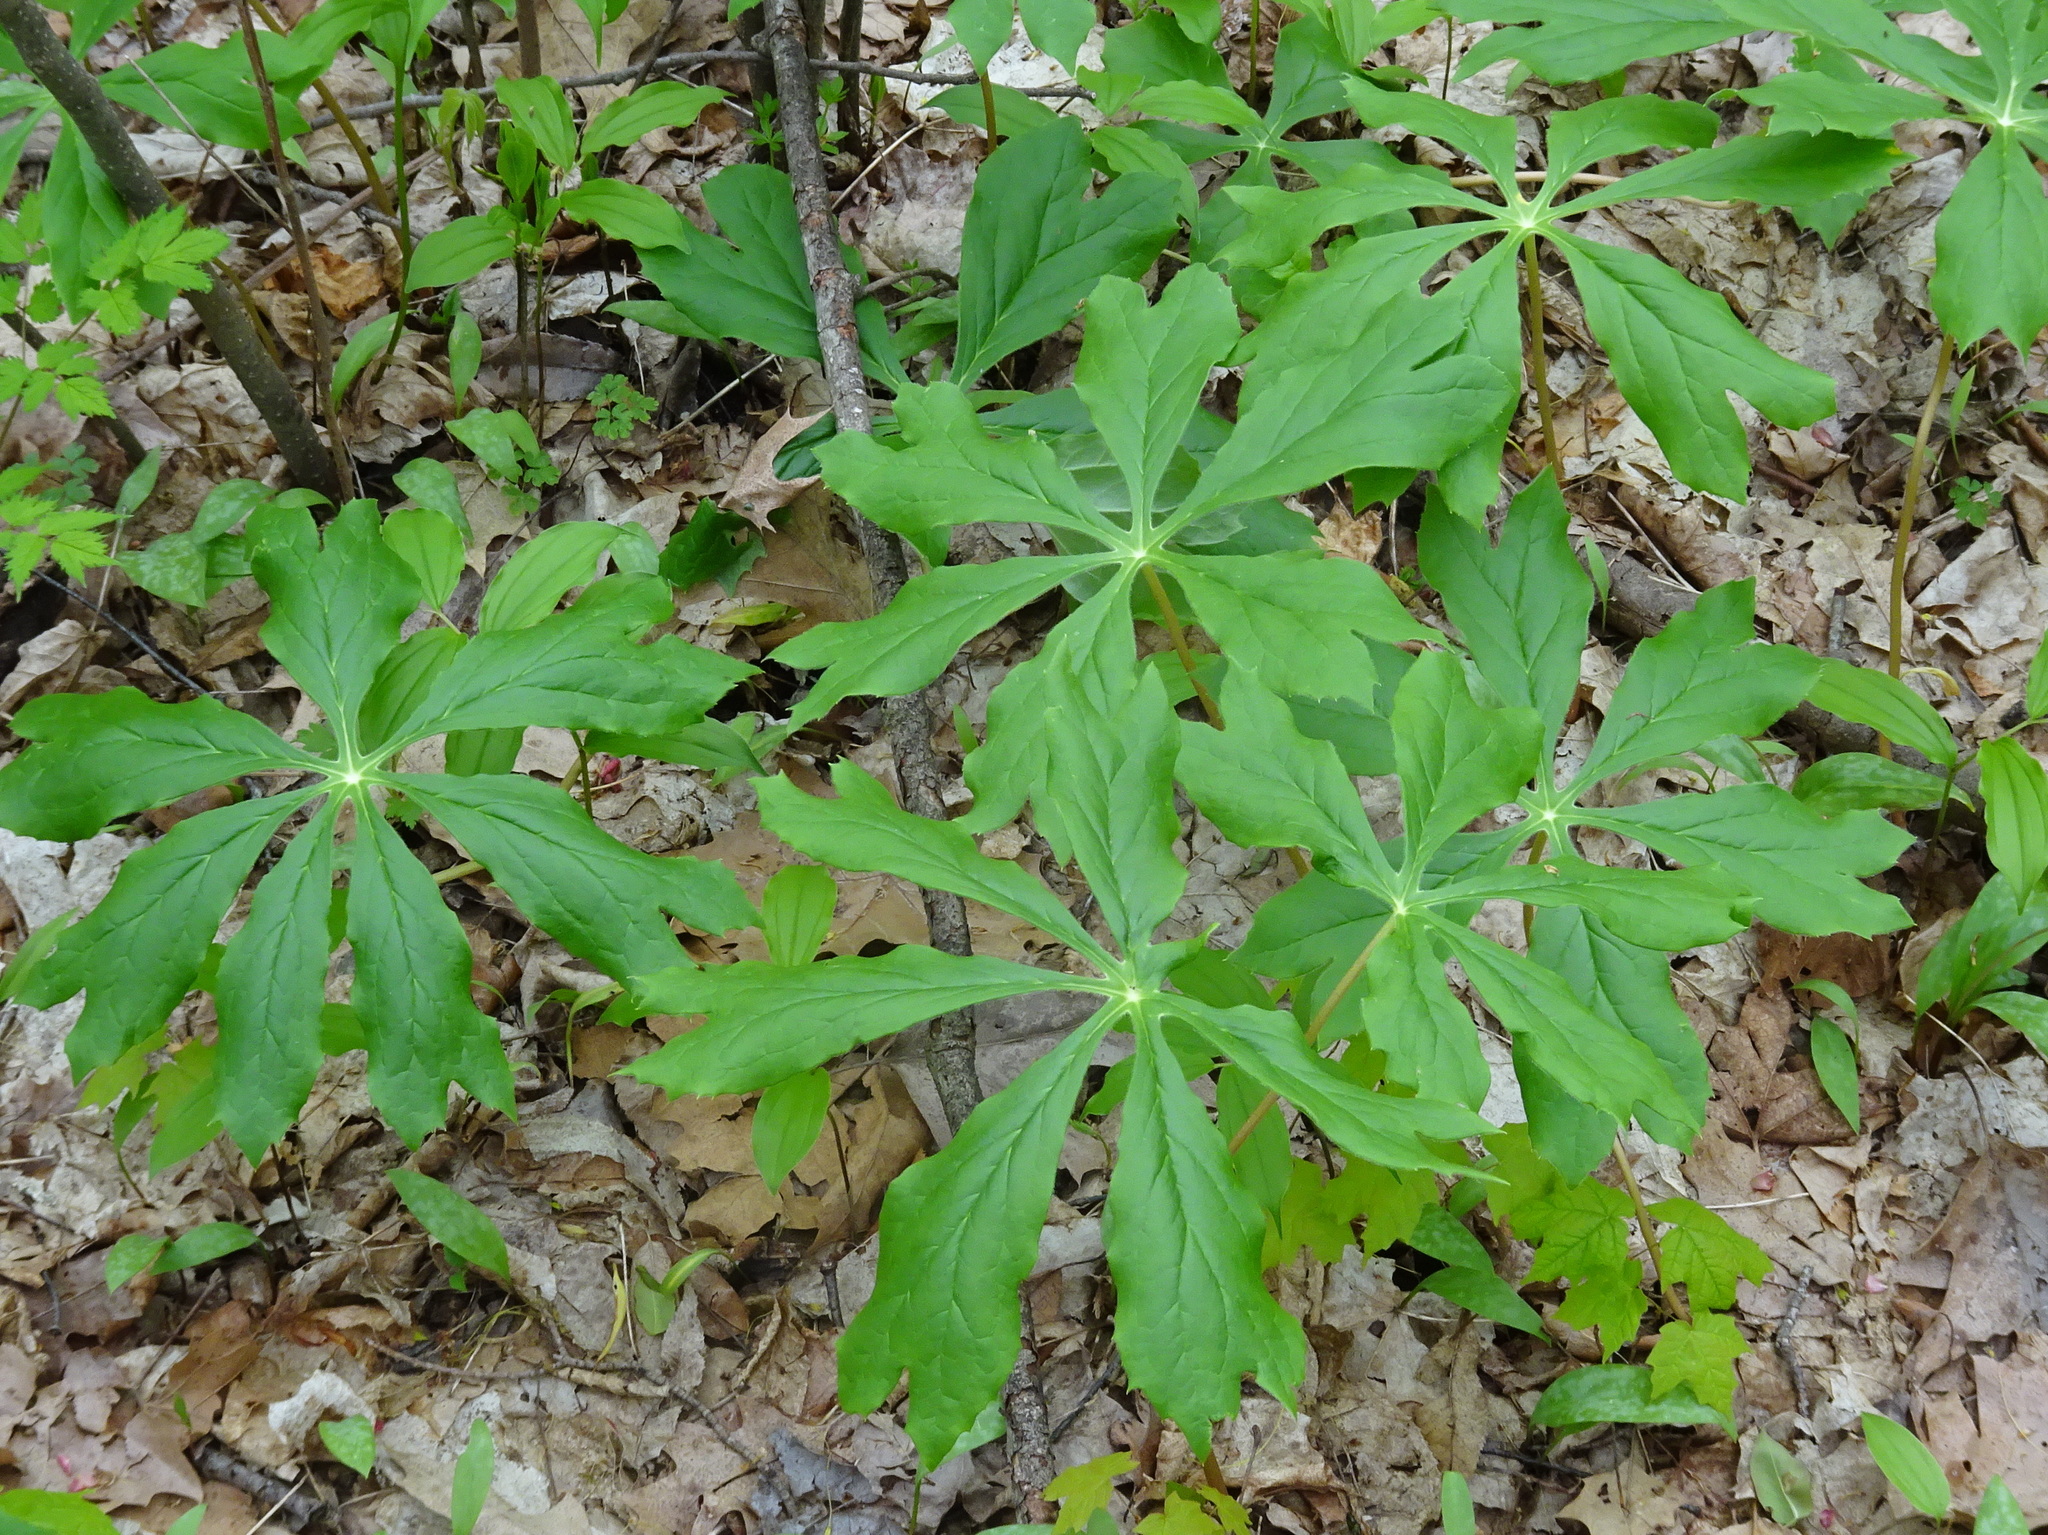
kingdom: Plantae
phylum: Tracheophyta
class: Magnoliopsida
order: Ranunculales
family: Berberidaceae
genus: Podophyllum
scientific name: Podophyllum peltatum
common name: Wild mandrake
